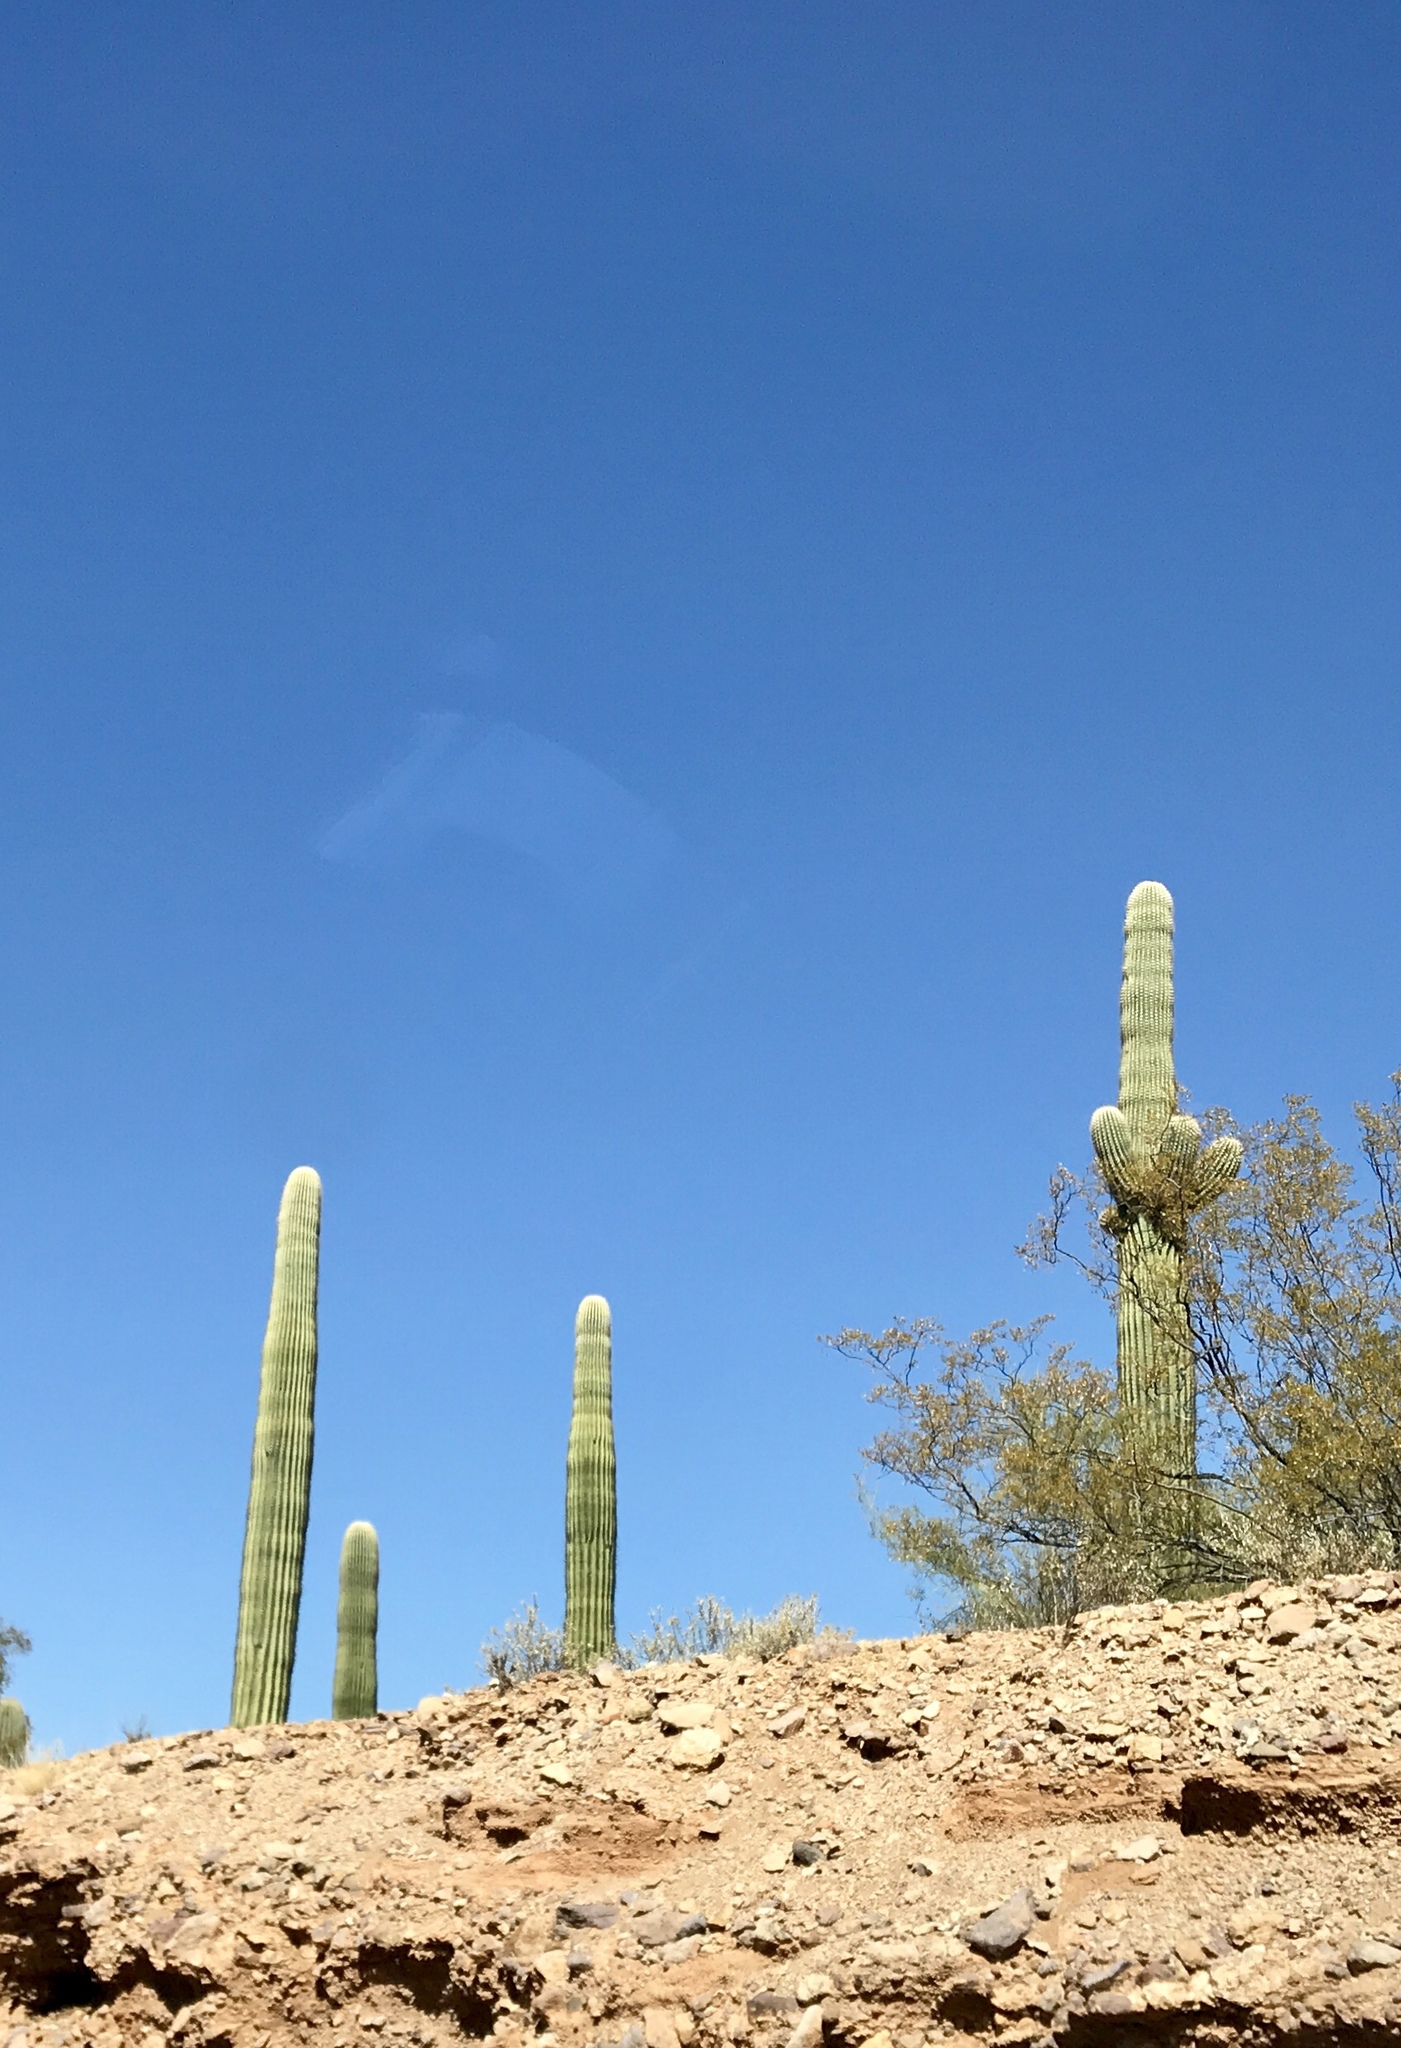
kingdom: Plantae
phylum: Tracheophyta
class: Magnoliopsida
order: Caryophyllales
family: Cactaceae
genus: Carnegiea
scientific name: Carnegiea gigantea
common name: Saguaro
